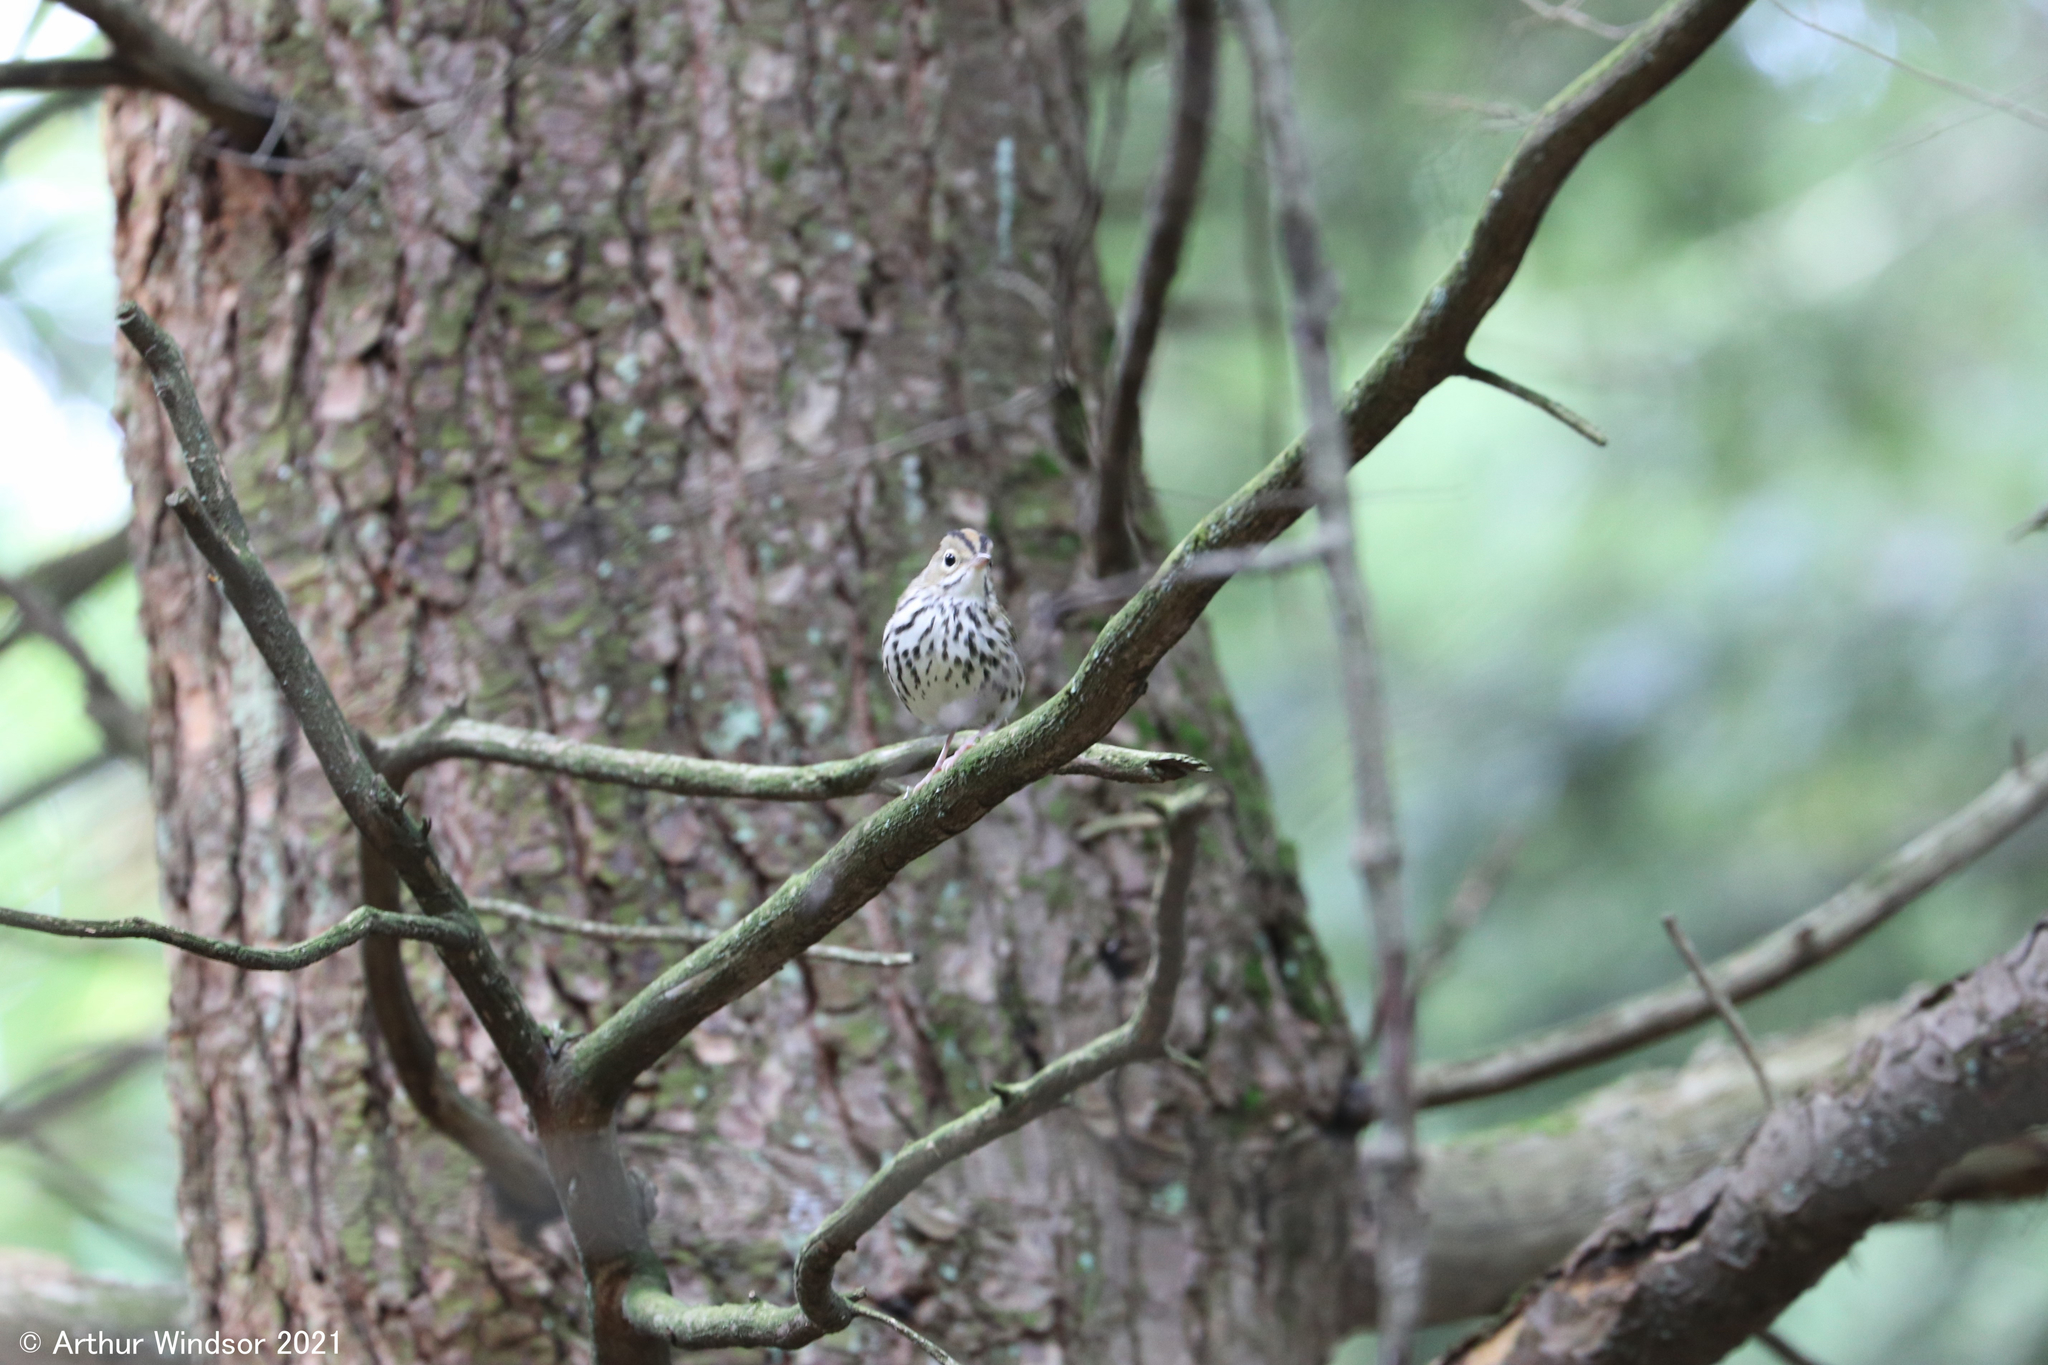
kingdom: Animalia
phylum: Chordata
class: Aves
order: Passeriformes
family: Parulidae
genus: Seiurus
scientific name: Seiurus aurocapilla
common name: Ovenbird
